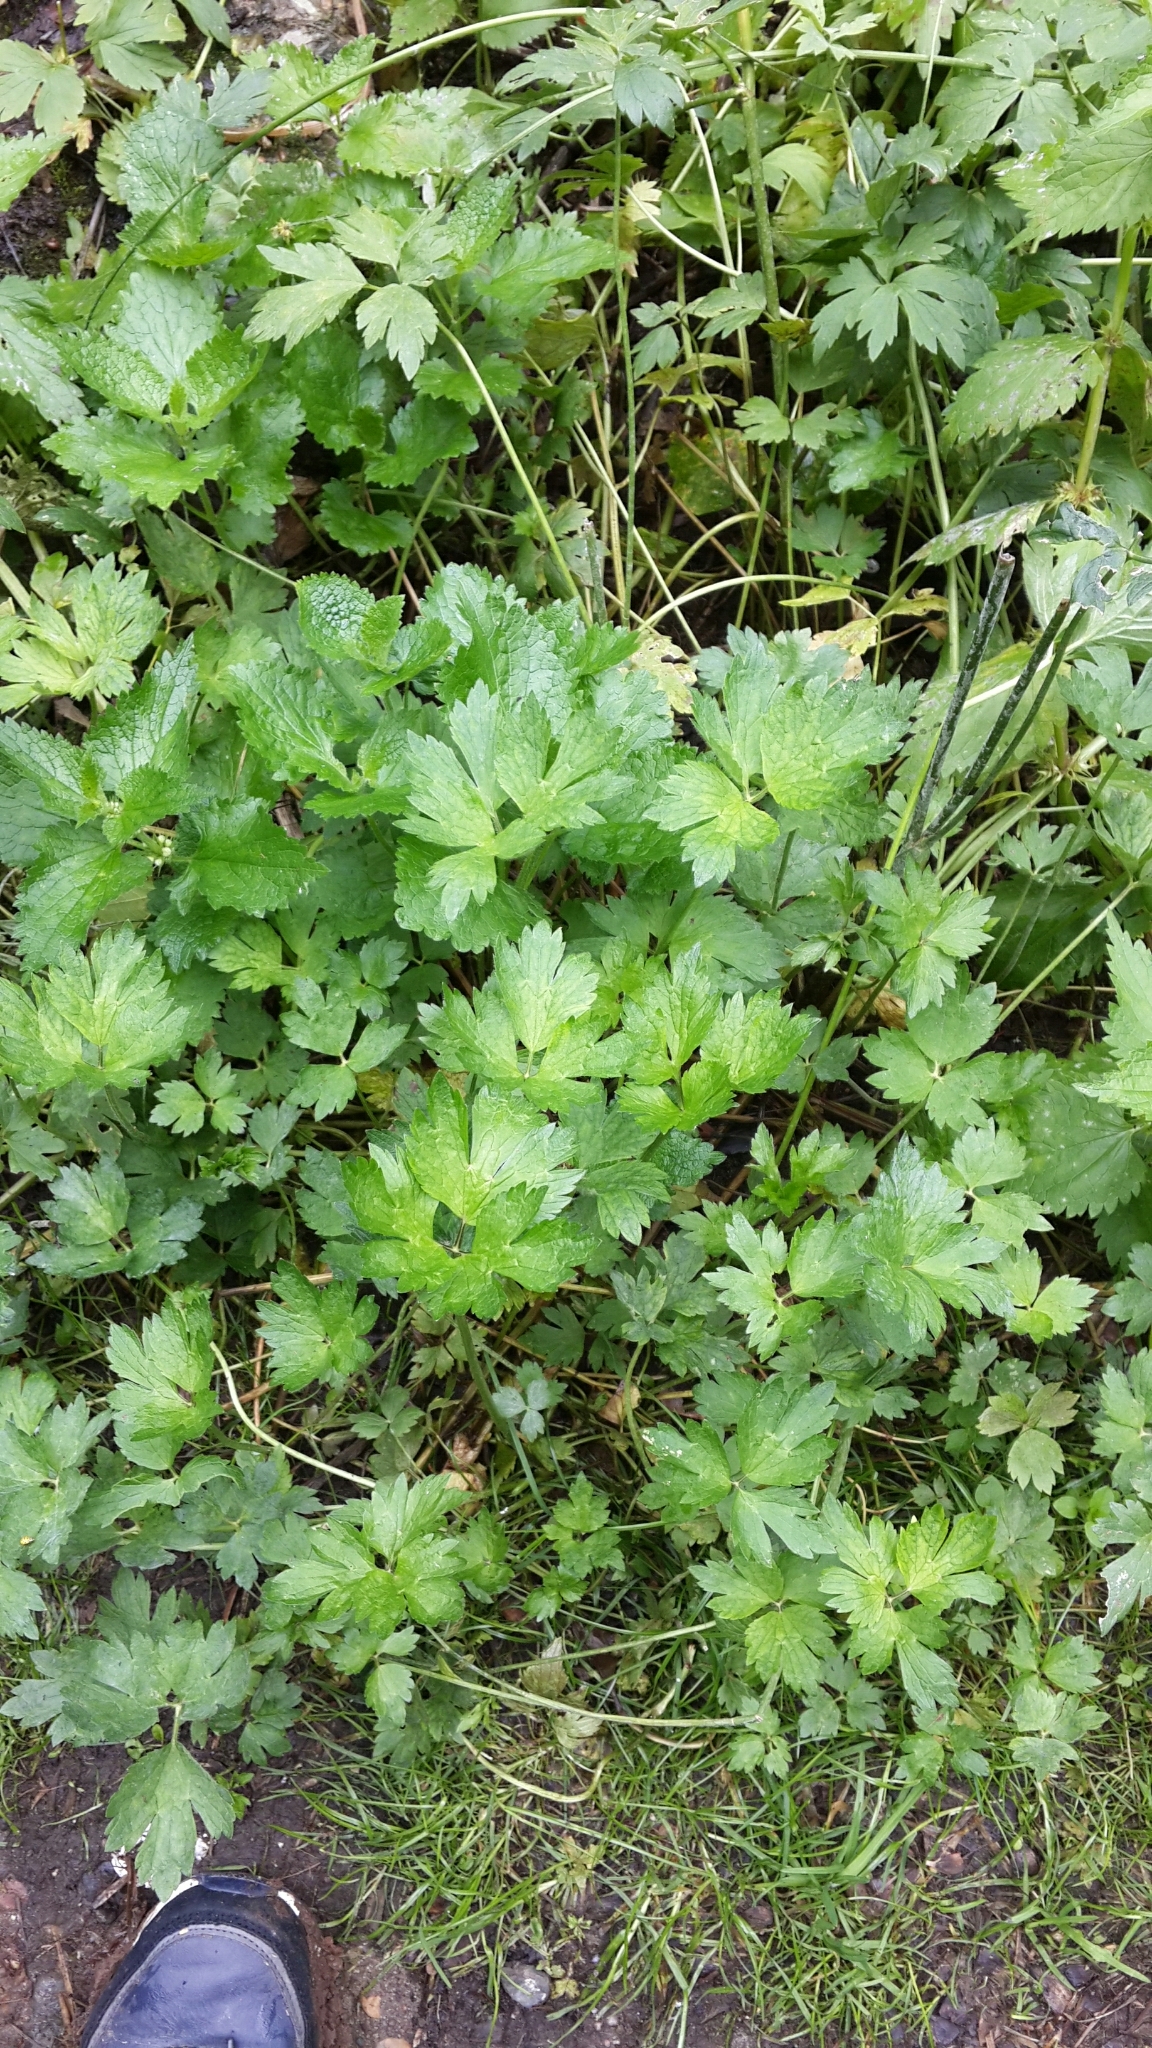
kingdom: Plantae
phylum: Tracheophyta
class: Magnoliopsida
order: Ranunculales
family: Ranunculaceae
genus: Ranunculus
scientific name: Ranunculus repens
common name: Creeping buttercup
